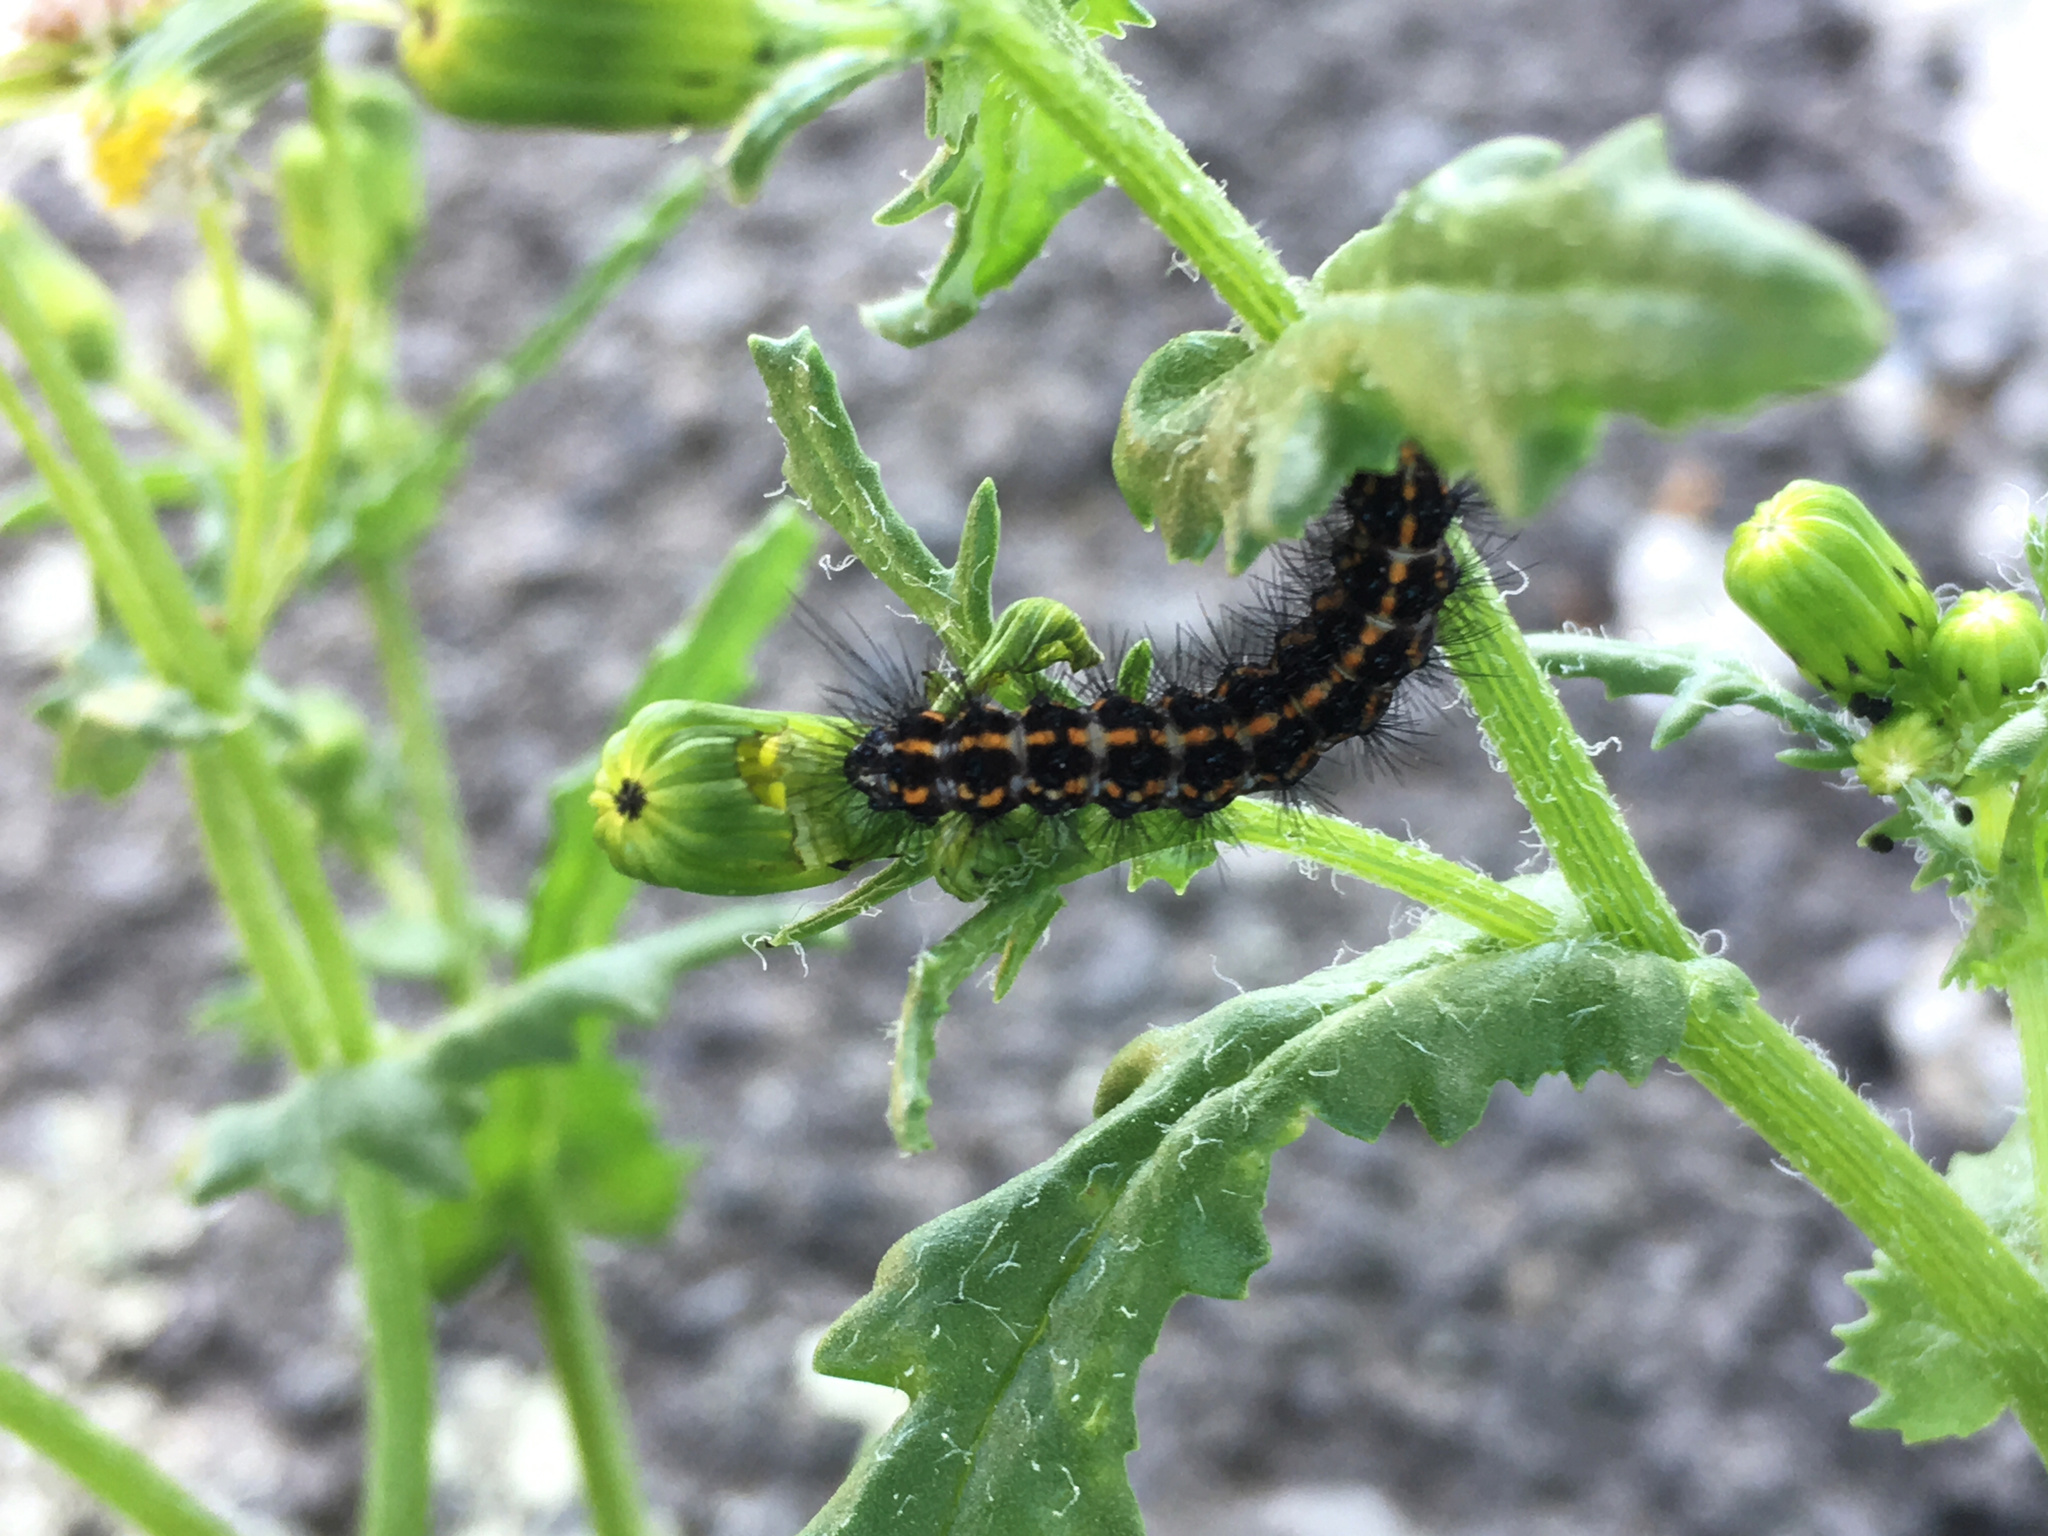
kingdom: Animalia
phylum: Arthropoda
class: Insecta
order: Lepidoptera
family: Erebidae
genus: Nyctemera
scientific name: Nyctemera annulatum
